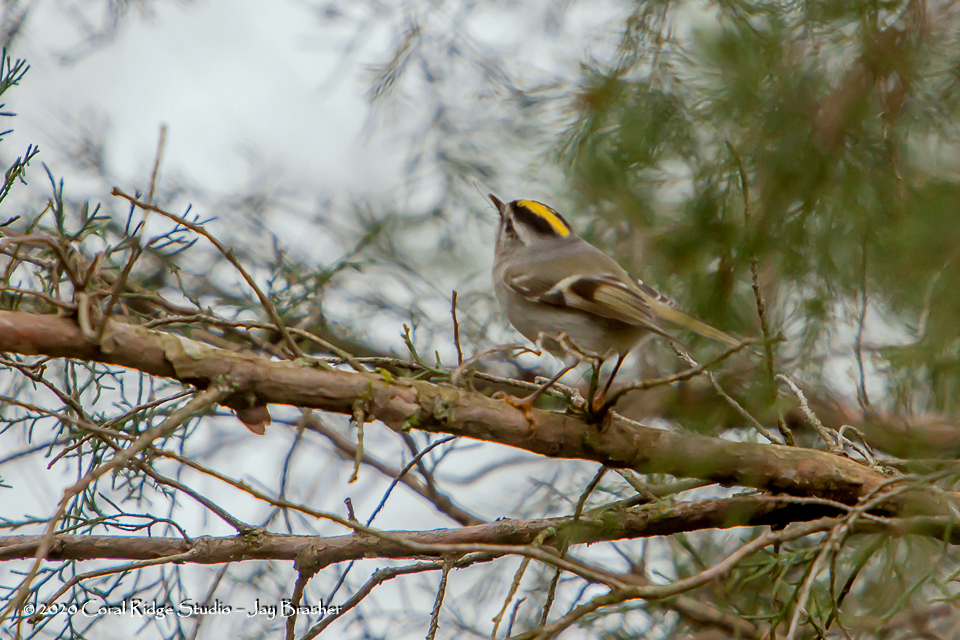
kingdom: Animalia
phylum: Chordata
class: Aves
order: Passeriformes
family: Regulidae
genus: Regulus
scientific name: Regulus satrapa
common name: Golden-crowned kinglet
